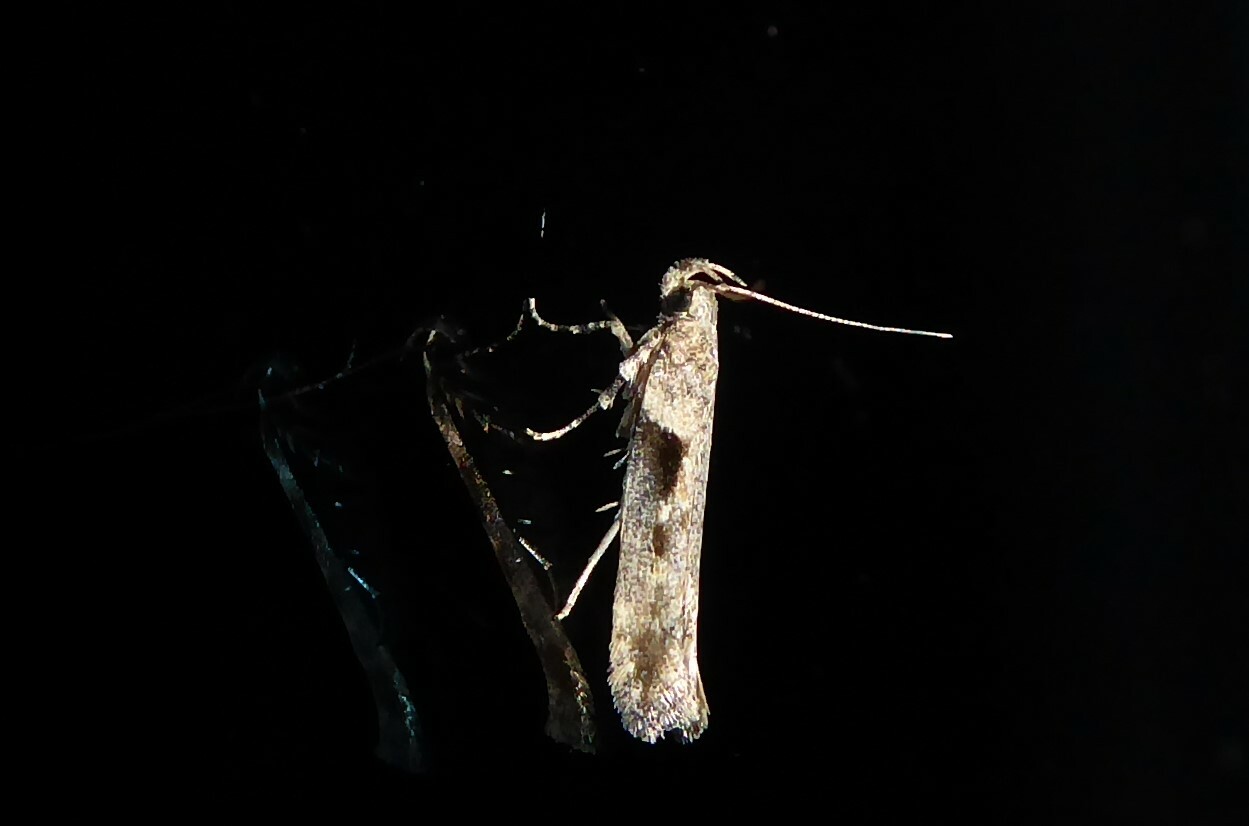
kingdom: Animalia
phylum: Arthropoda
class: Insecta
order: Lepidoptera
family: Gelechiidae
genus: Symmetrischema
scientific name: Symmetrischema tangolias
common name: Moth
